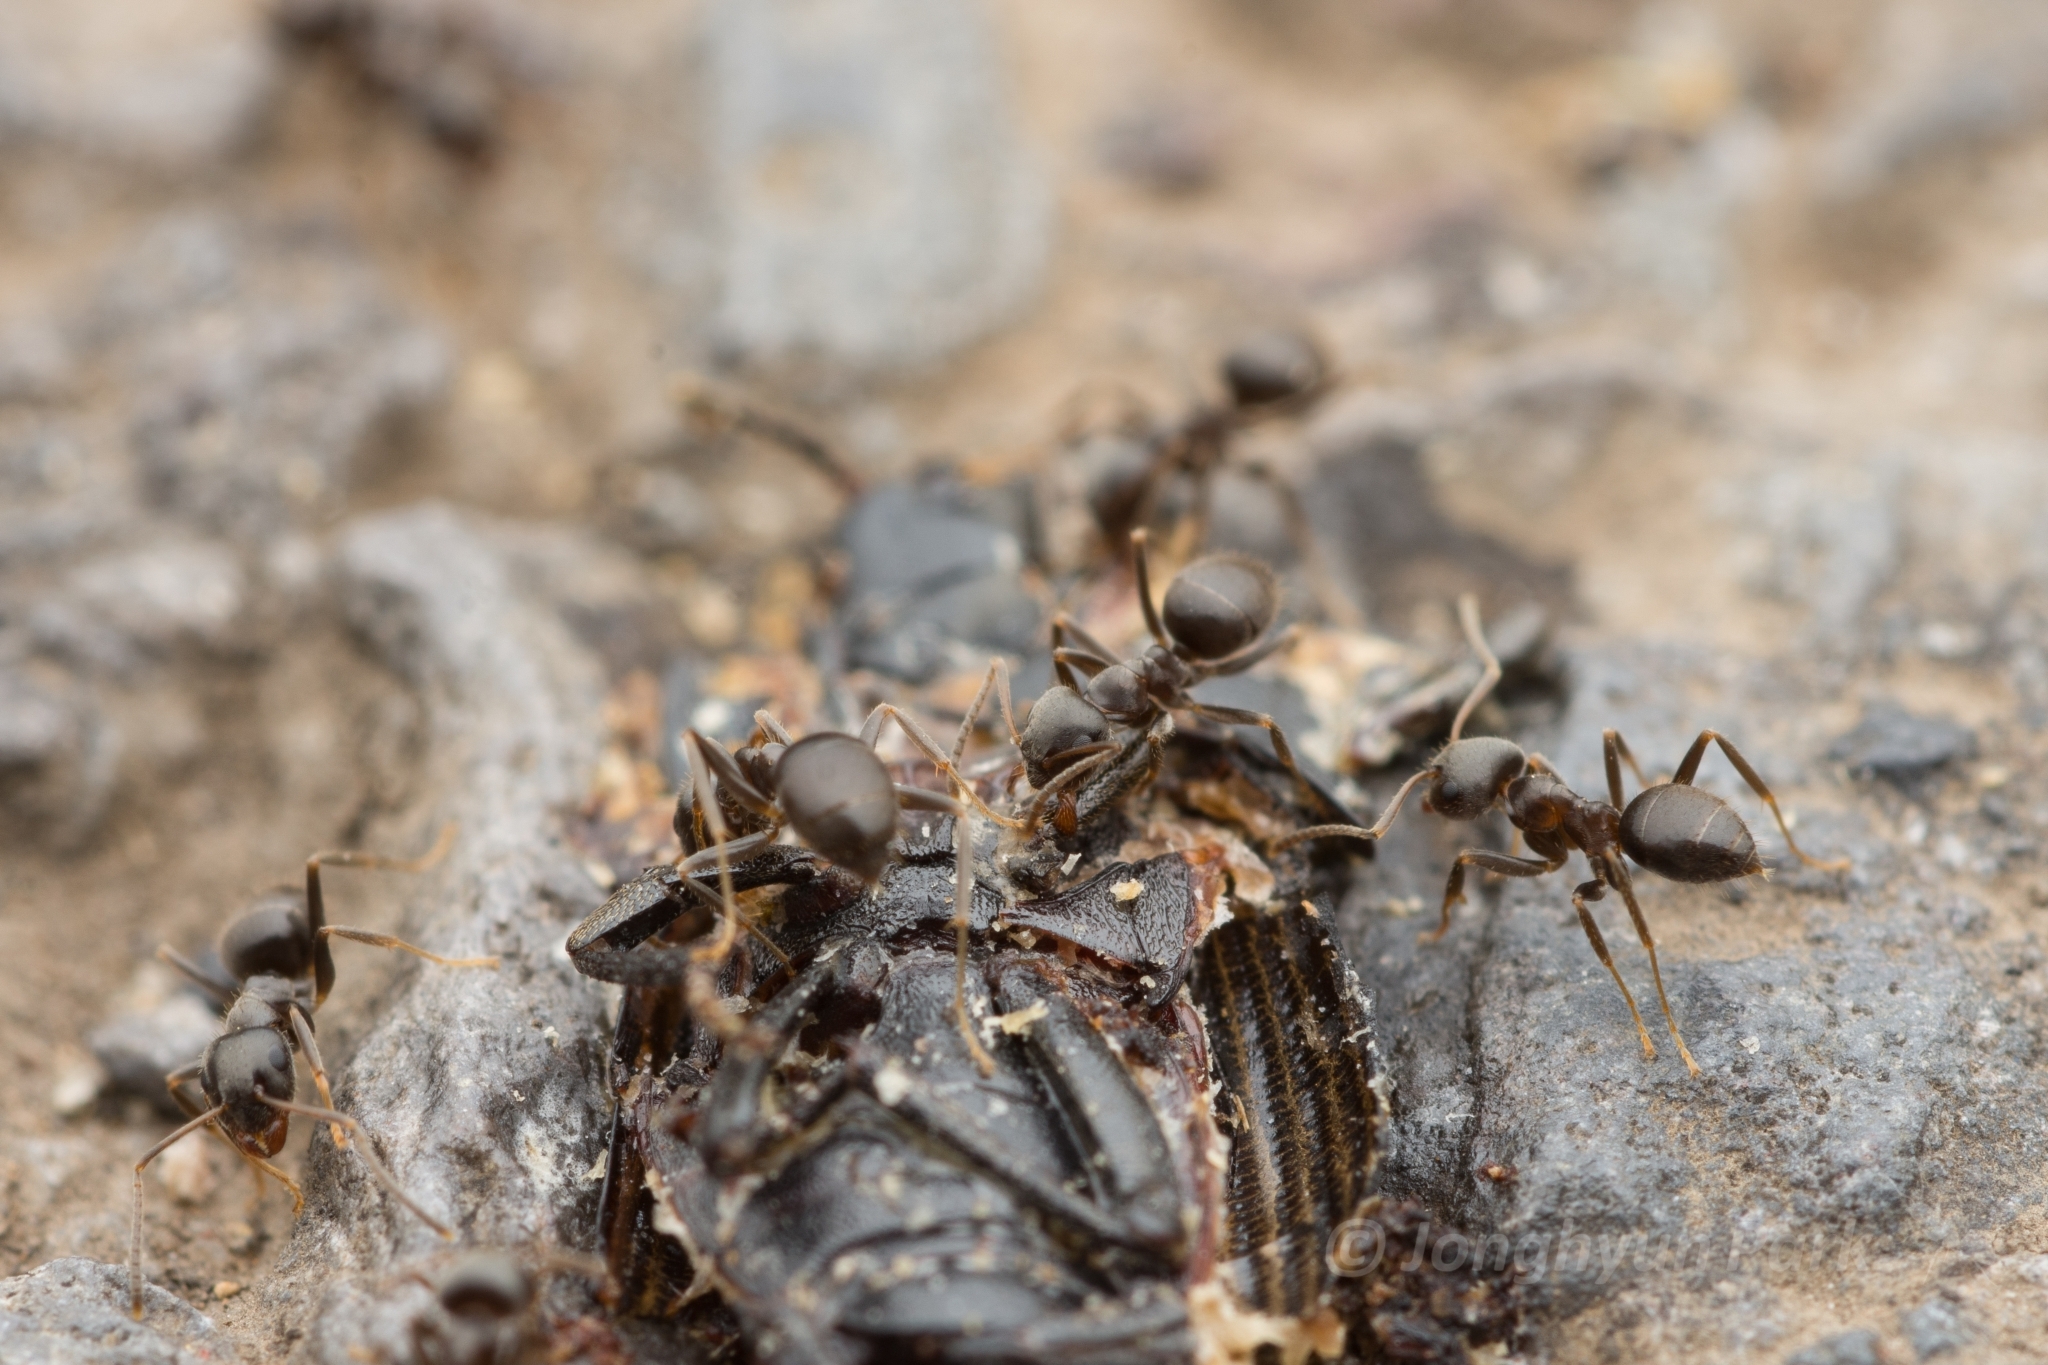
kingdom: Animalia
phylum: Arthropoda
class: Insecta
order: Hymenoptera
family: Formicidae
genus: Lasius
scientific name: Lasius japonicus
